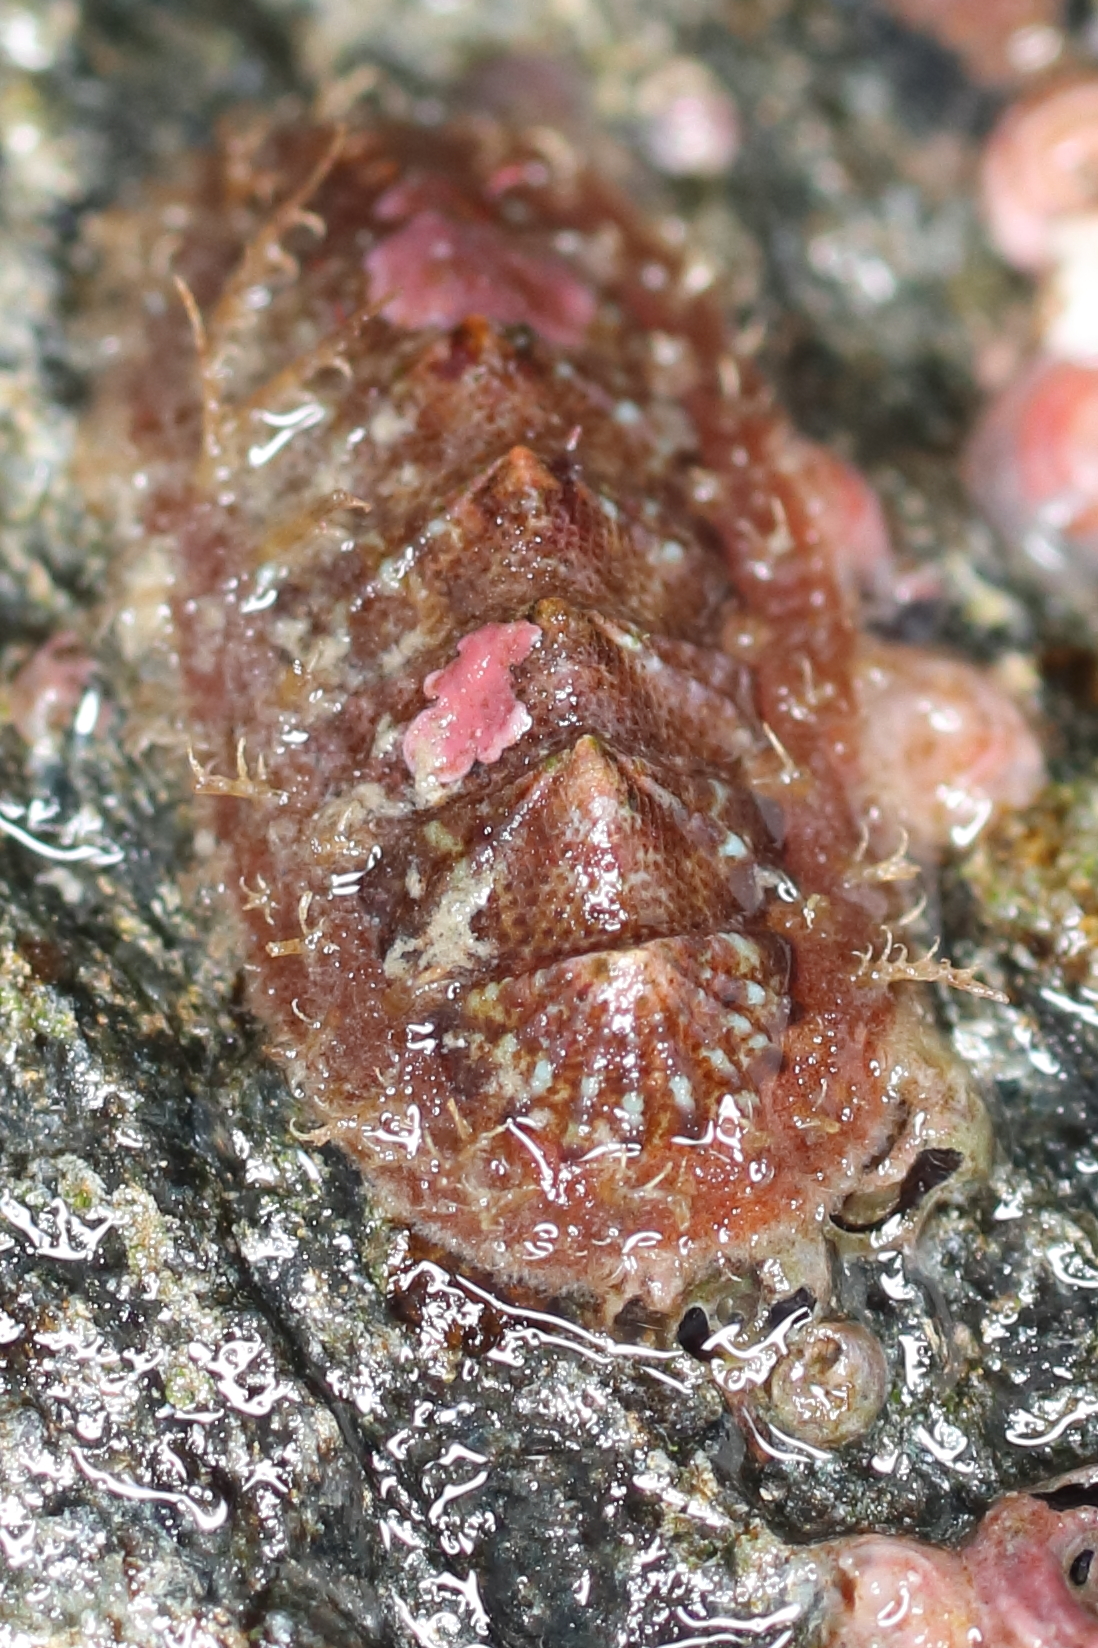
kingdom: Animalia
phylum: Mollusca
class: Polyplacophora
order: Chitonida
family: Mopaliidae
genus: Mopalia
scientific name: Mopalia sinuata
